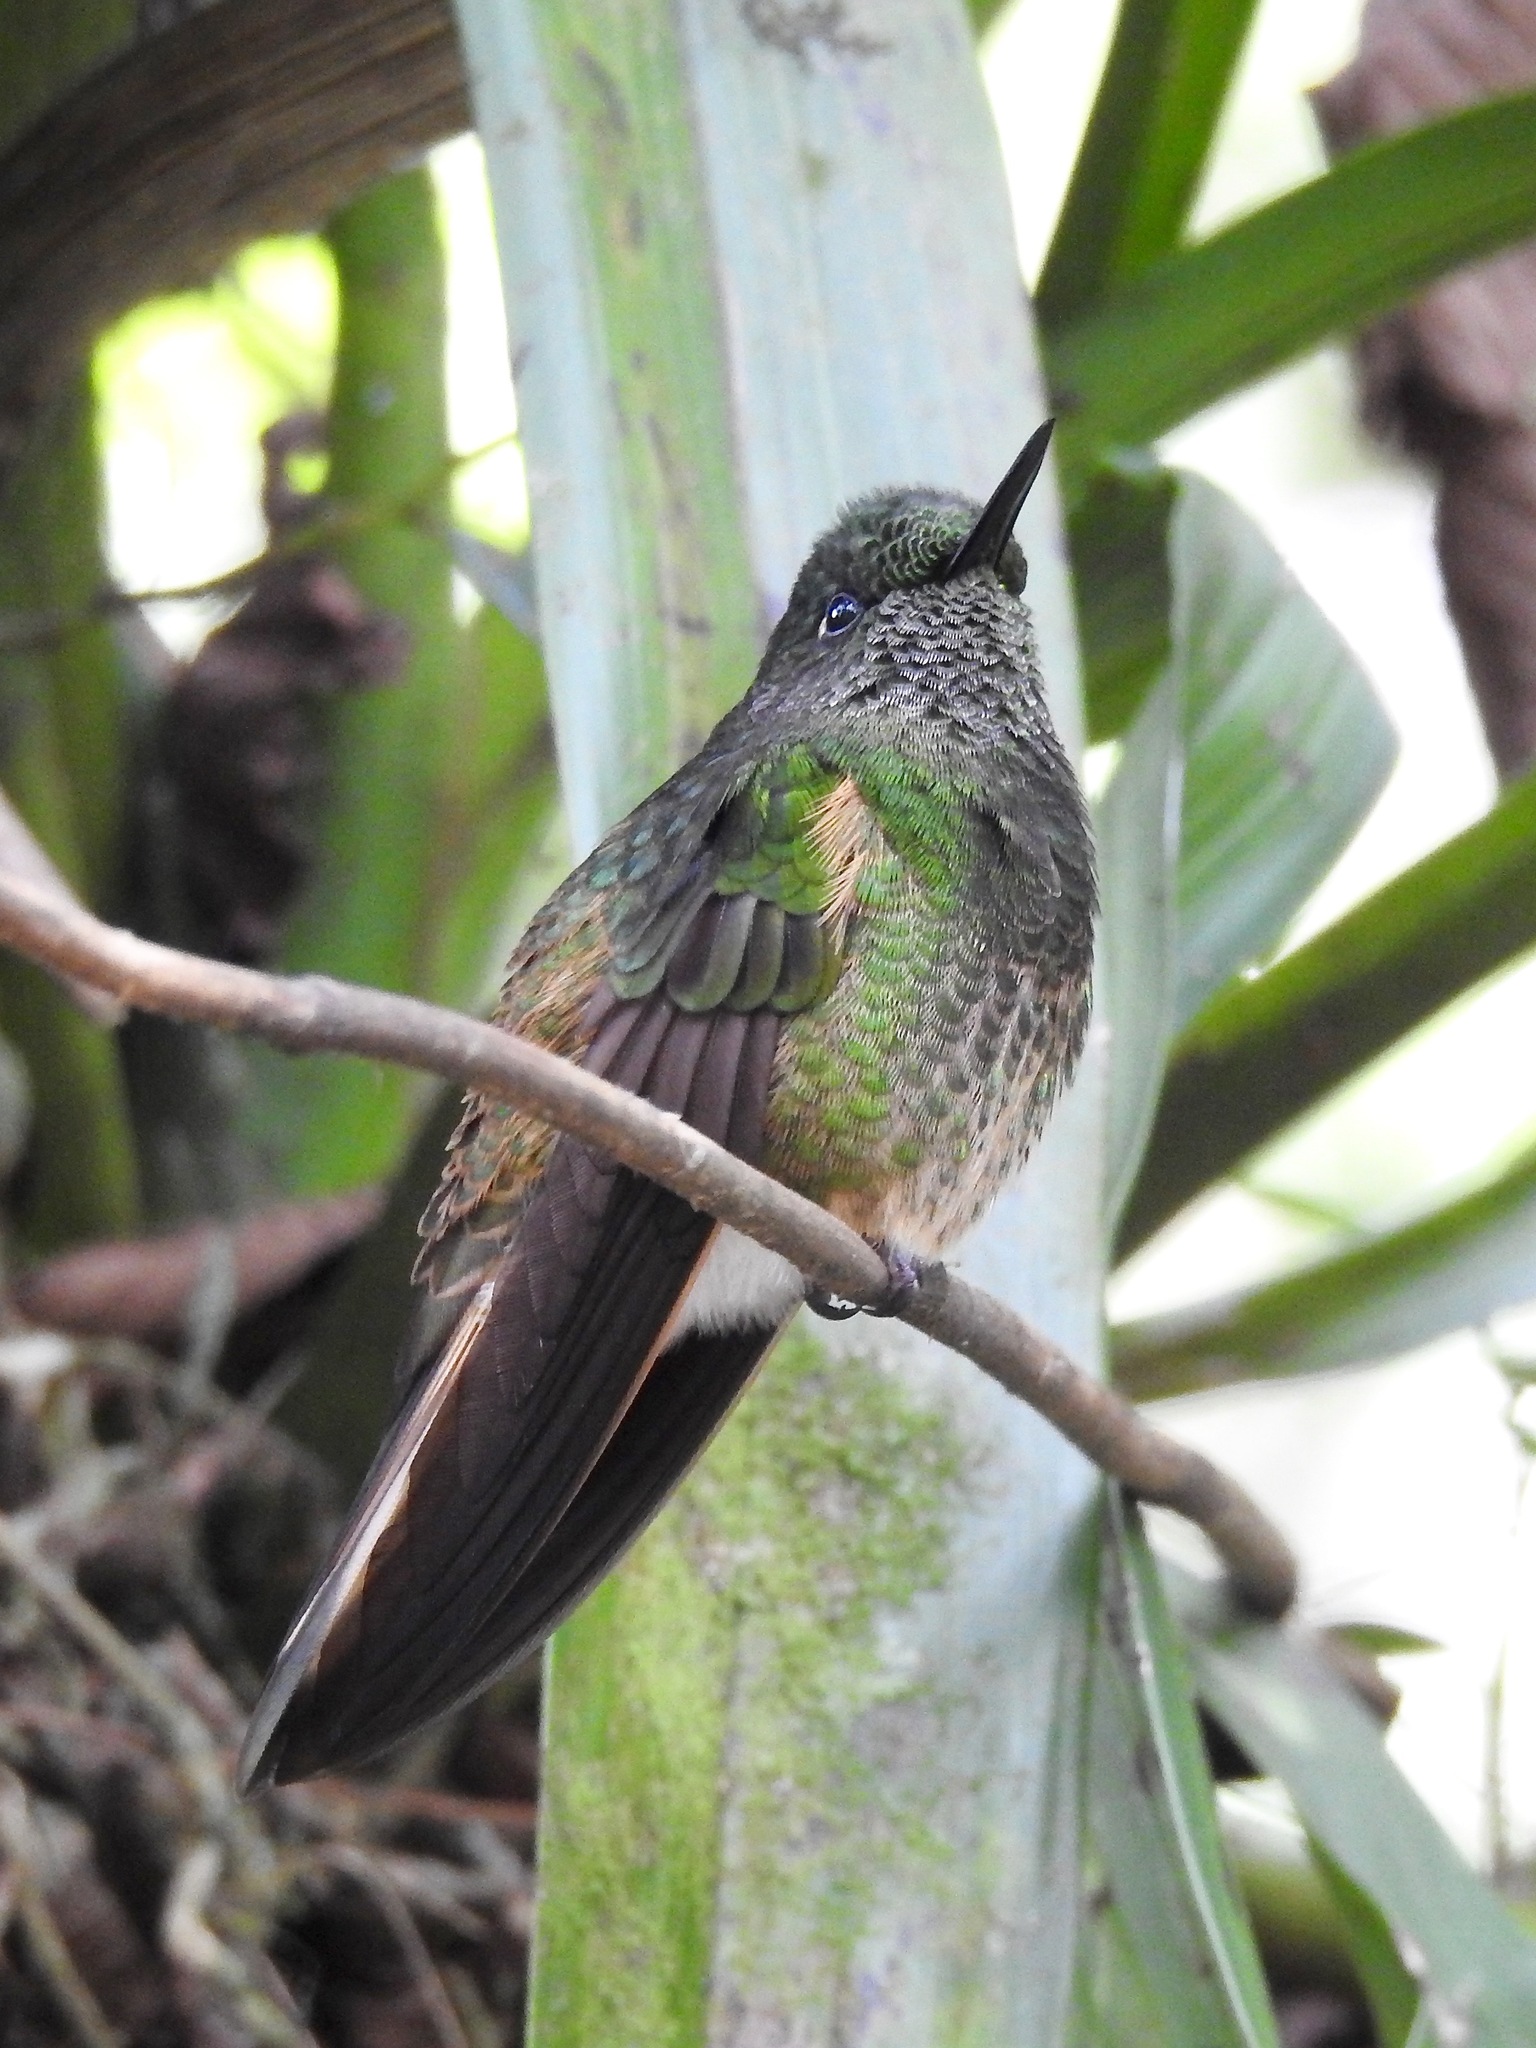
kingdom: Animalia
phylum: Chordata
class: Aves
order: Apodiformes
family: Trochilidae
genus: Boissonneaua
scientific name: Boissonneaua flavescens
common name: Buff-tailed coronet
